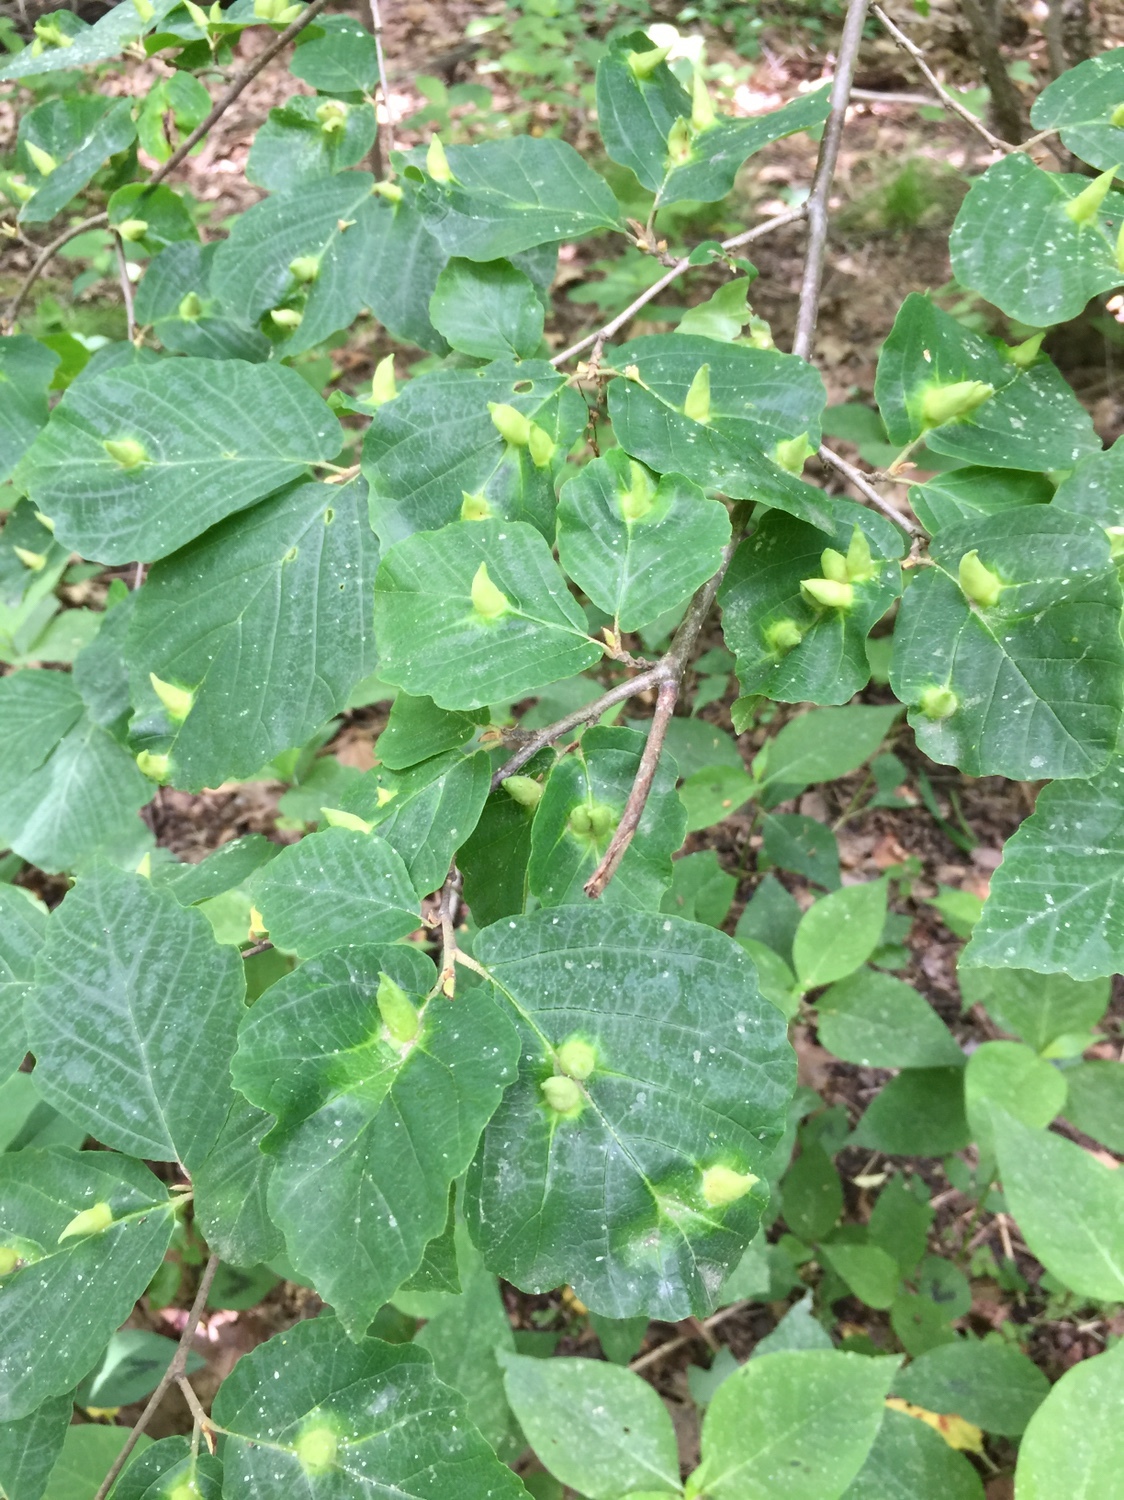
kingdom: Animalia
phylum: Arthropoda
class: Insecta
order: Hemiptera
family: Aphididae
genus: Hormaphis
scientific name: Hormaphis hamamelidis
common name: Witch-hazel cone gall aphid
